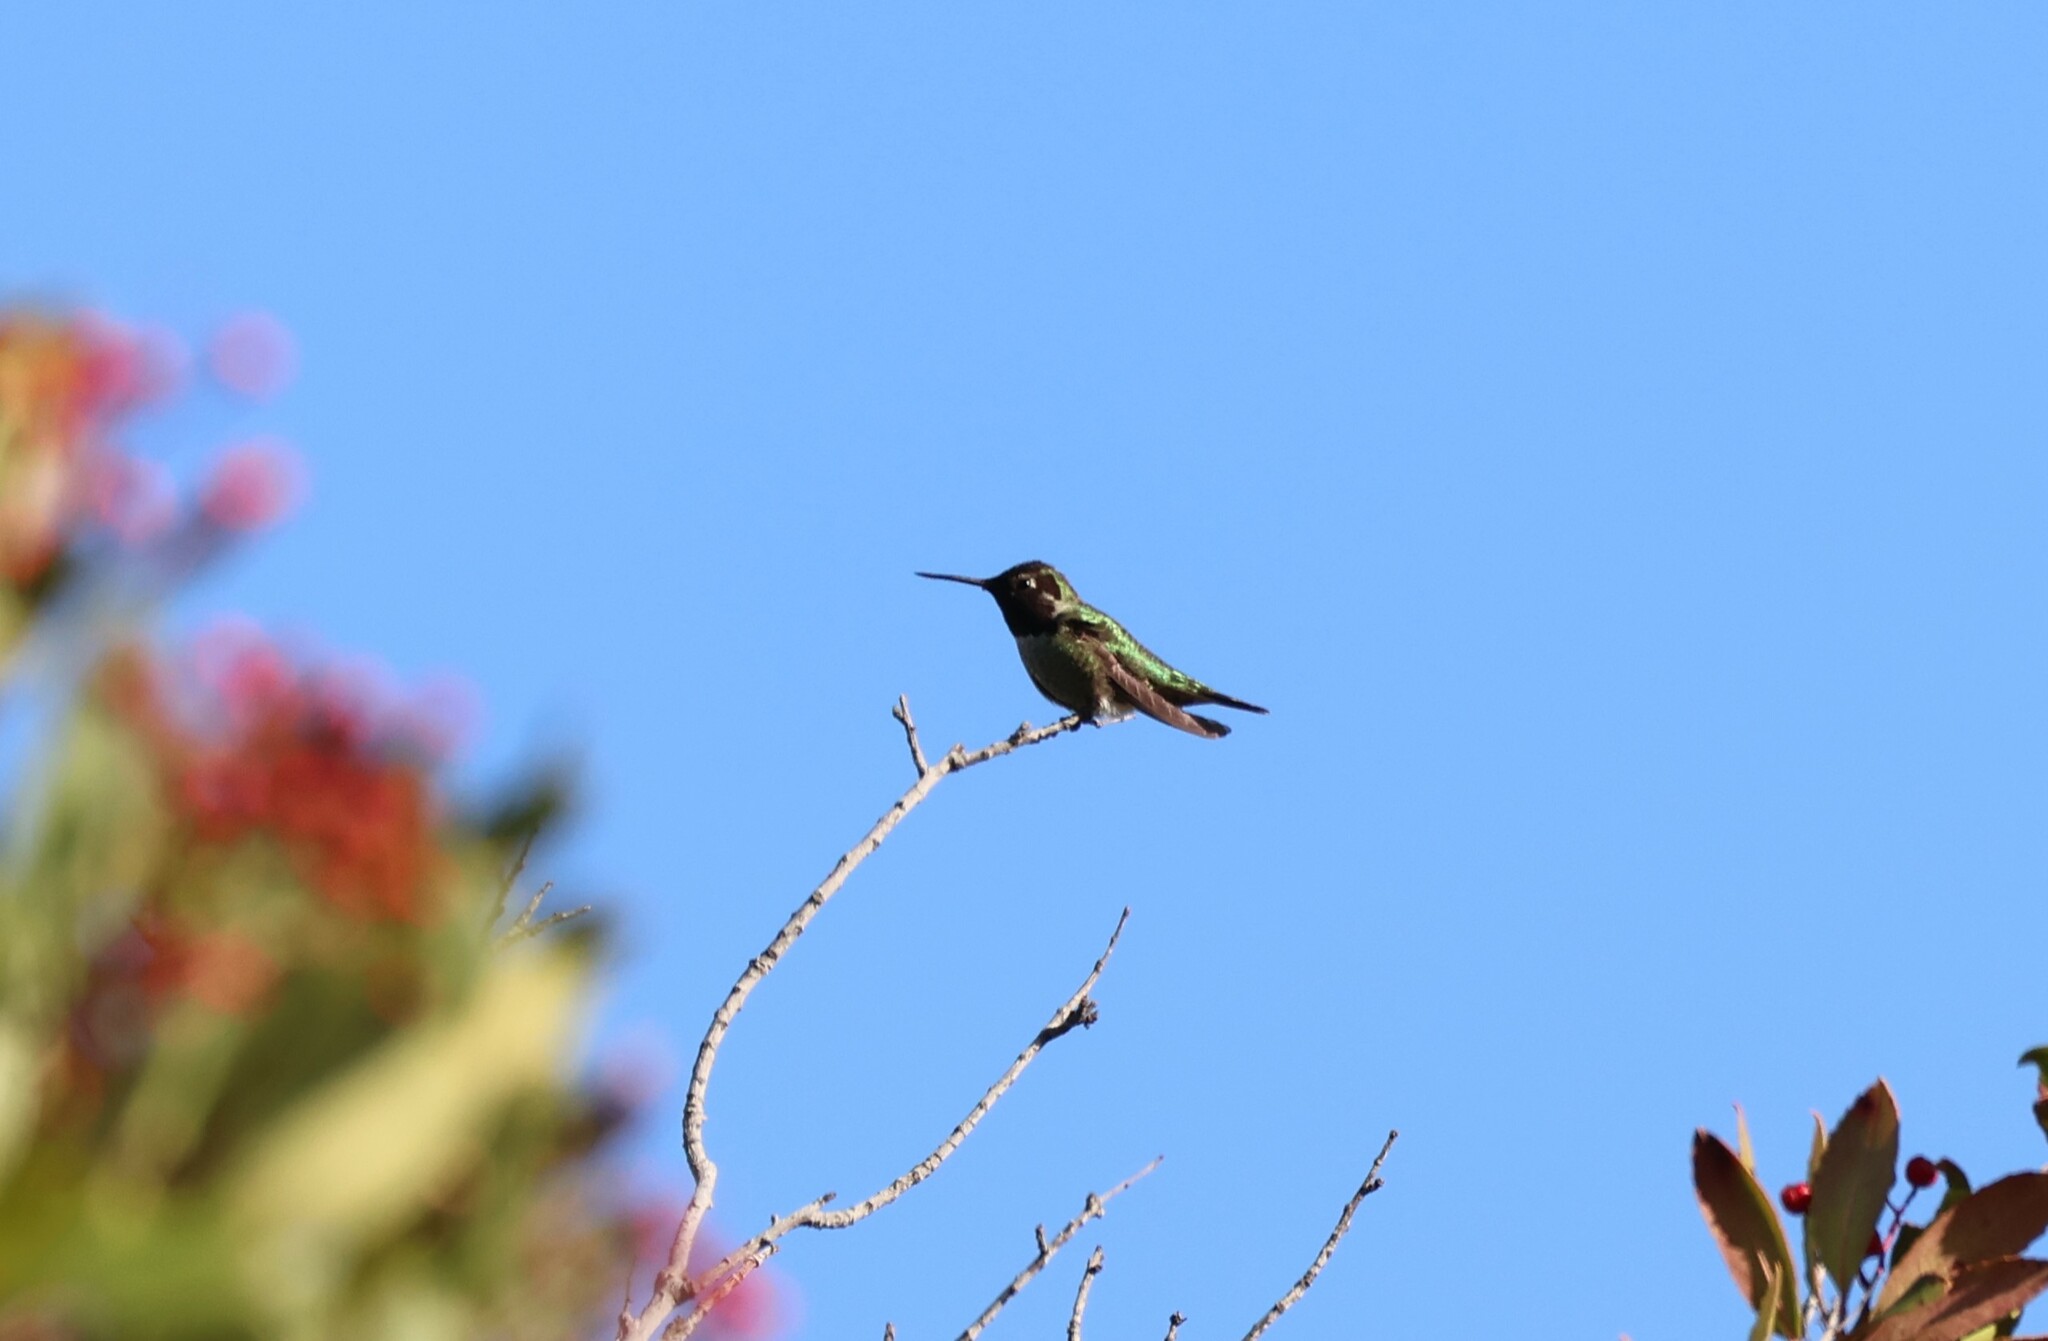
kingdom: Animalia
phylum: Chordata
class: Aves
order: Apodiformes
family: Trochilidae
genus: Calypte
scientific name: Calypte anna
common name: Anna's hummingbird
